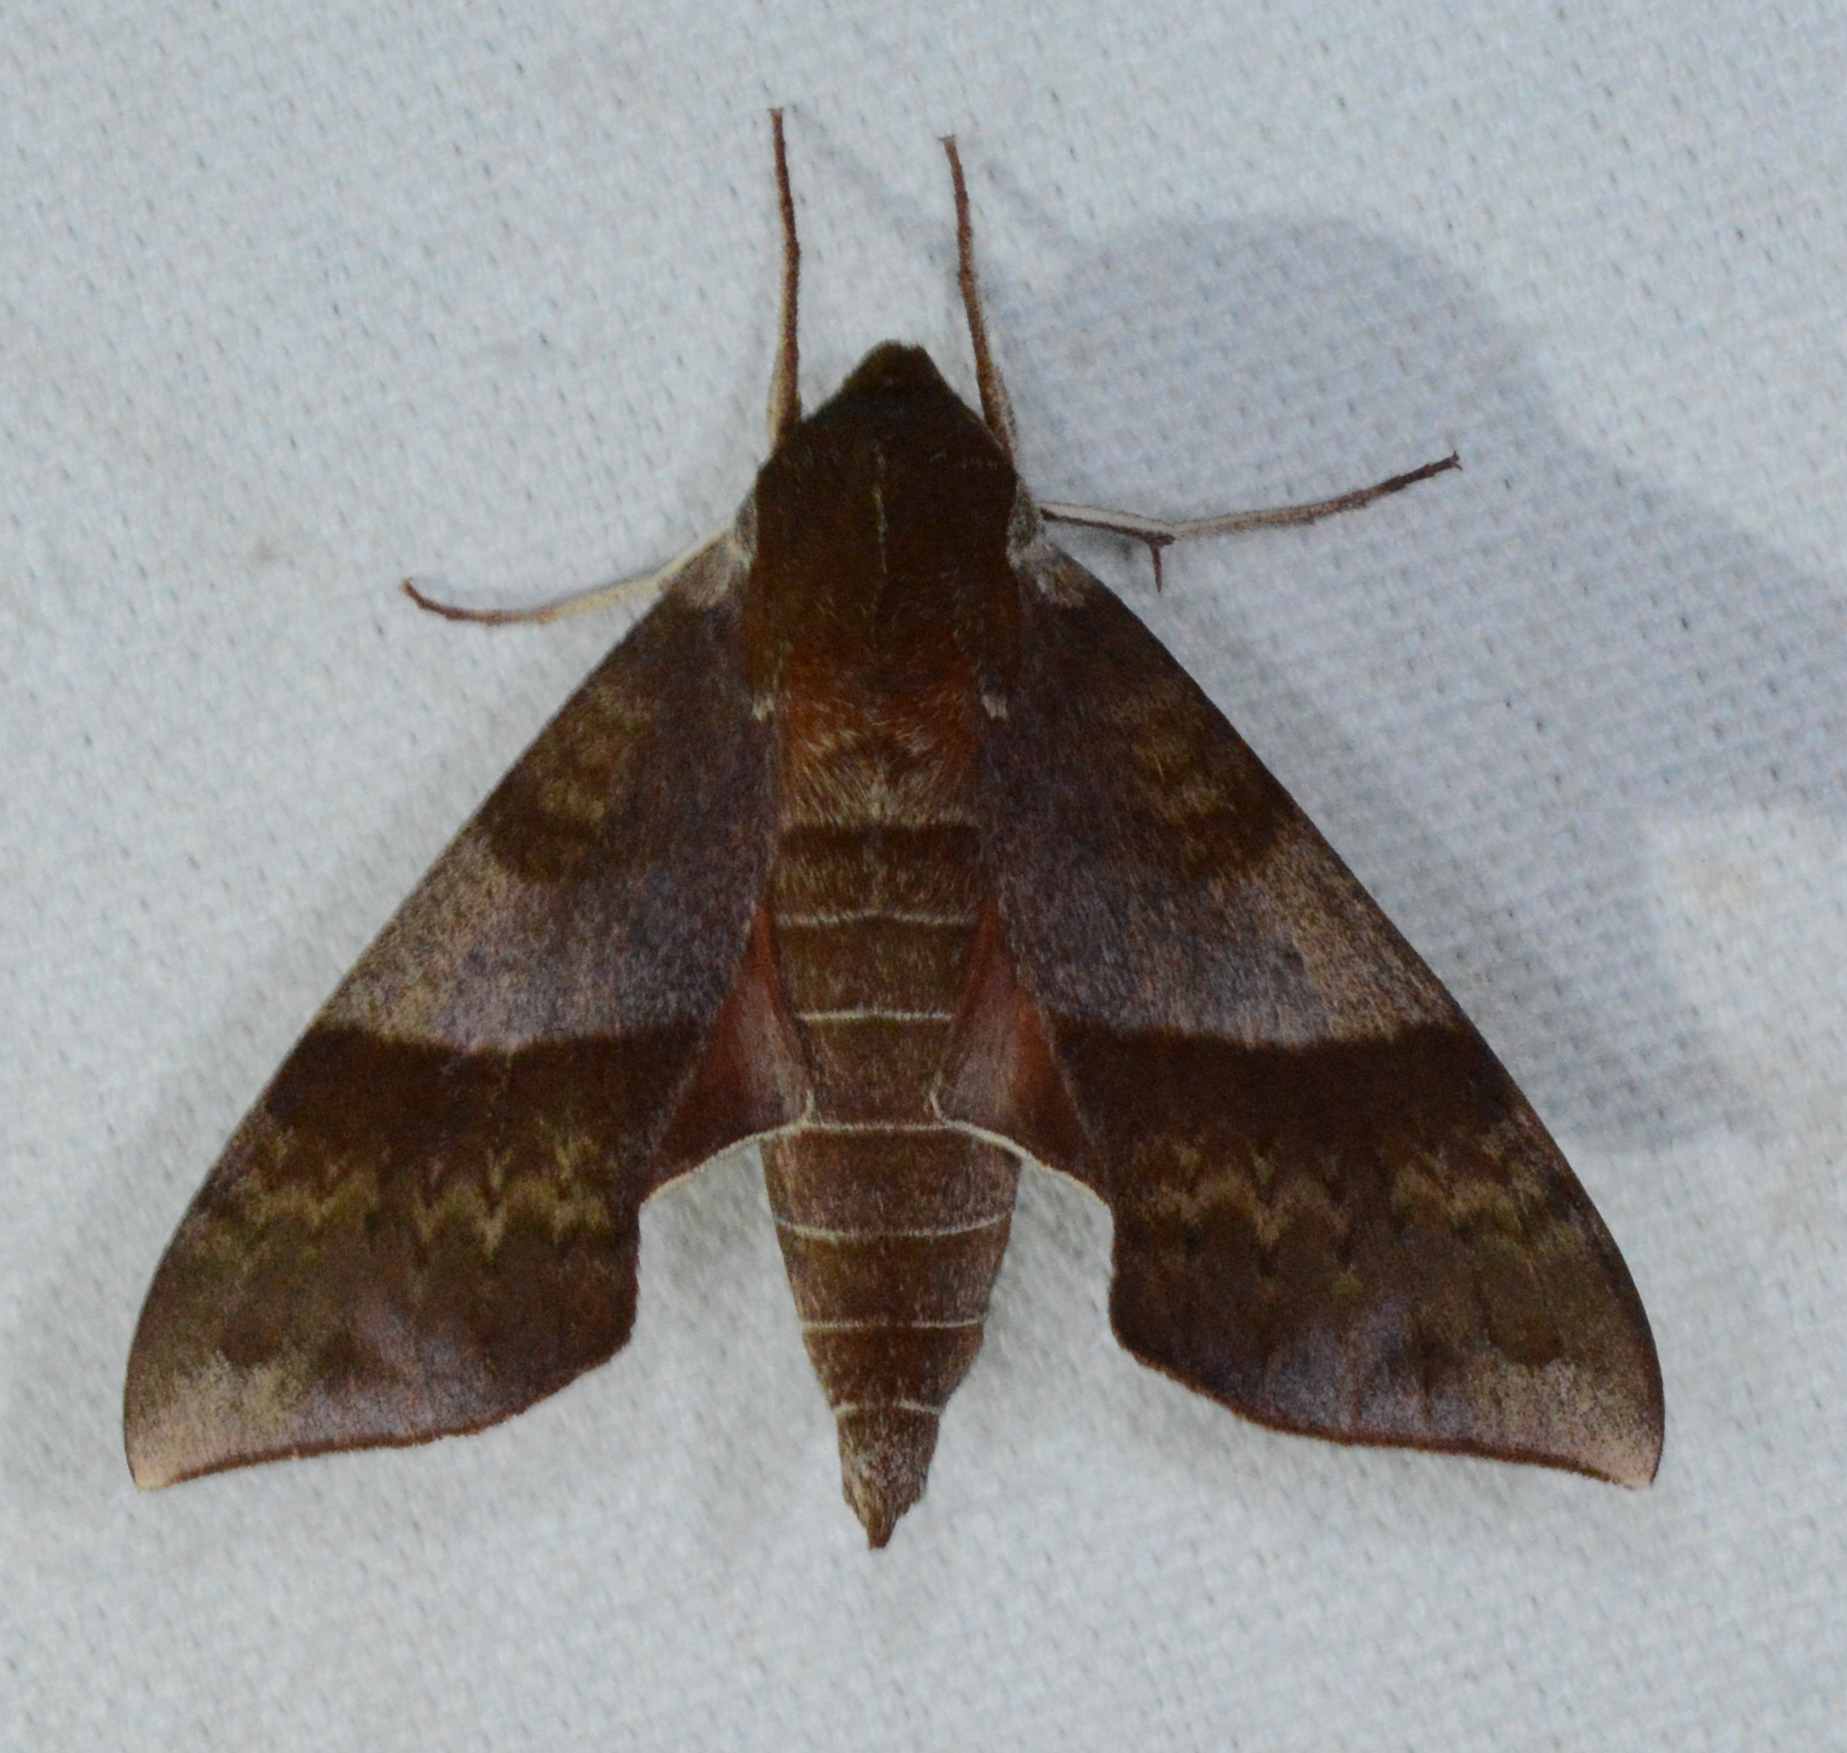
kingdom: Animalia
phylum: Arthropoda
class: Insecta
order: Lepidoptera
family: Sphingidae
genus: Darapsa
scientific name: Darapsa choerilus
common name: Azalea sphinx
